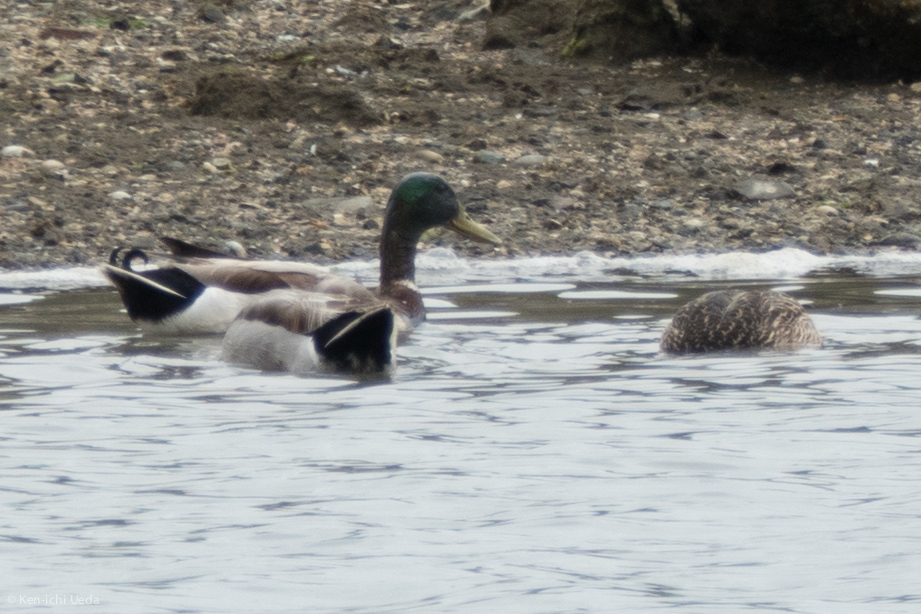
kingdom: Animalia
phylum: Chordata
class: Aves
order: Anseriformes
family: Anatidae
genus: Anas
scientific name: Anas platyrhynchos
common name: Mallard
